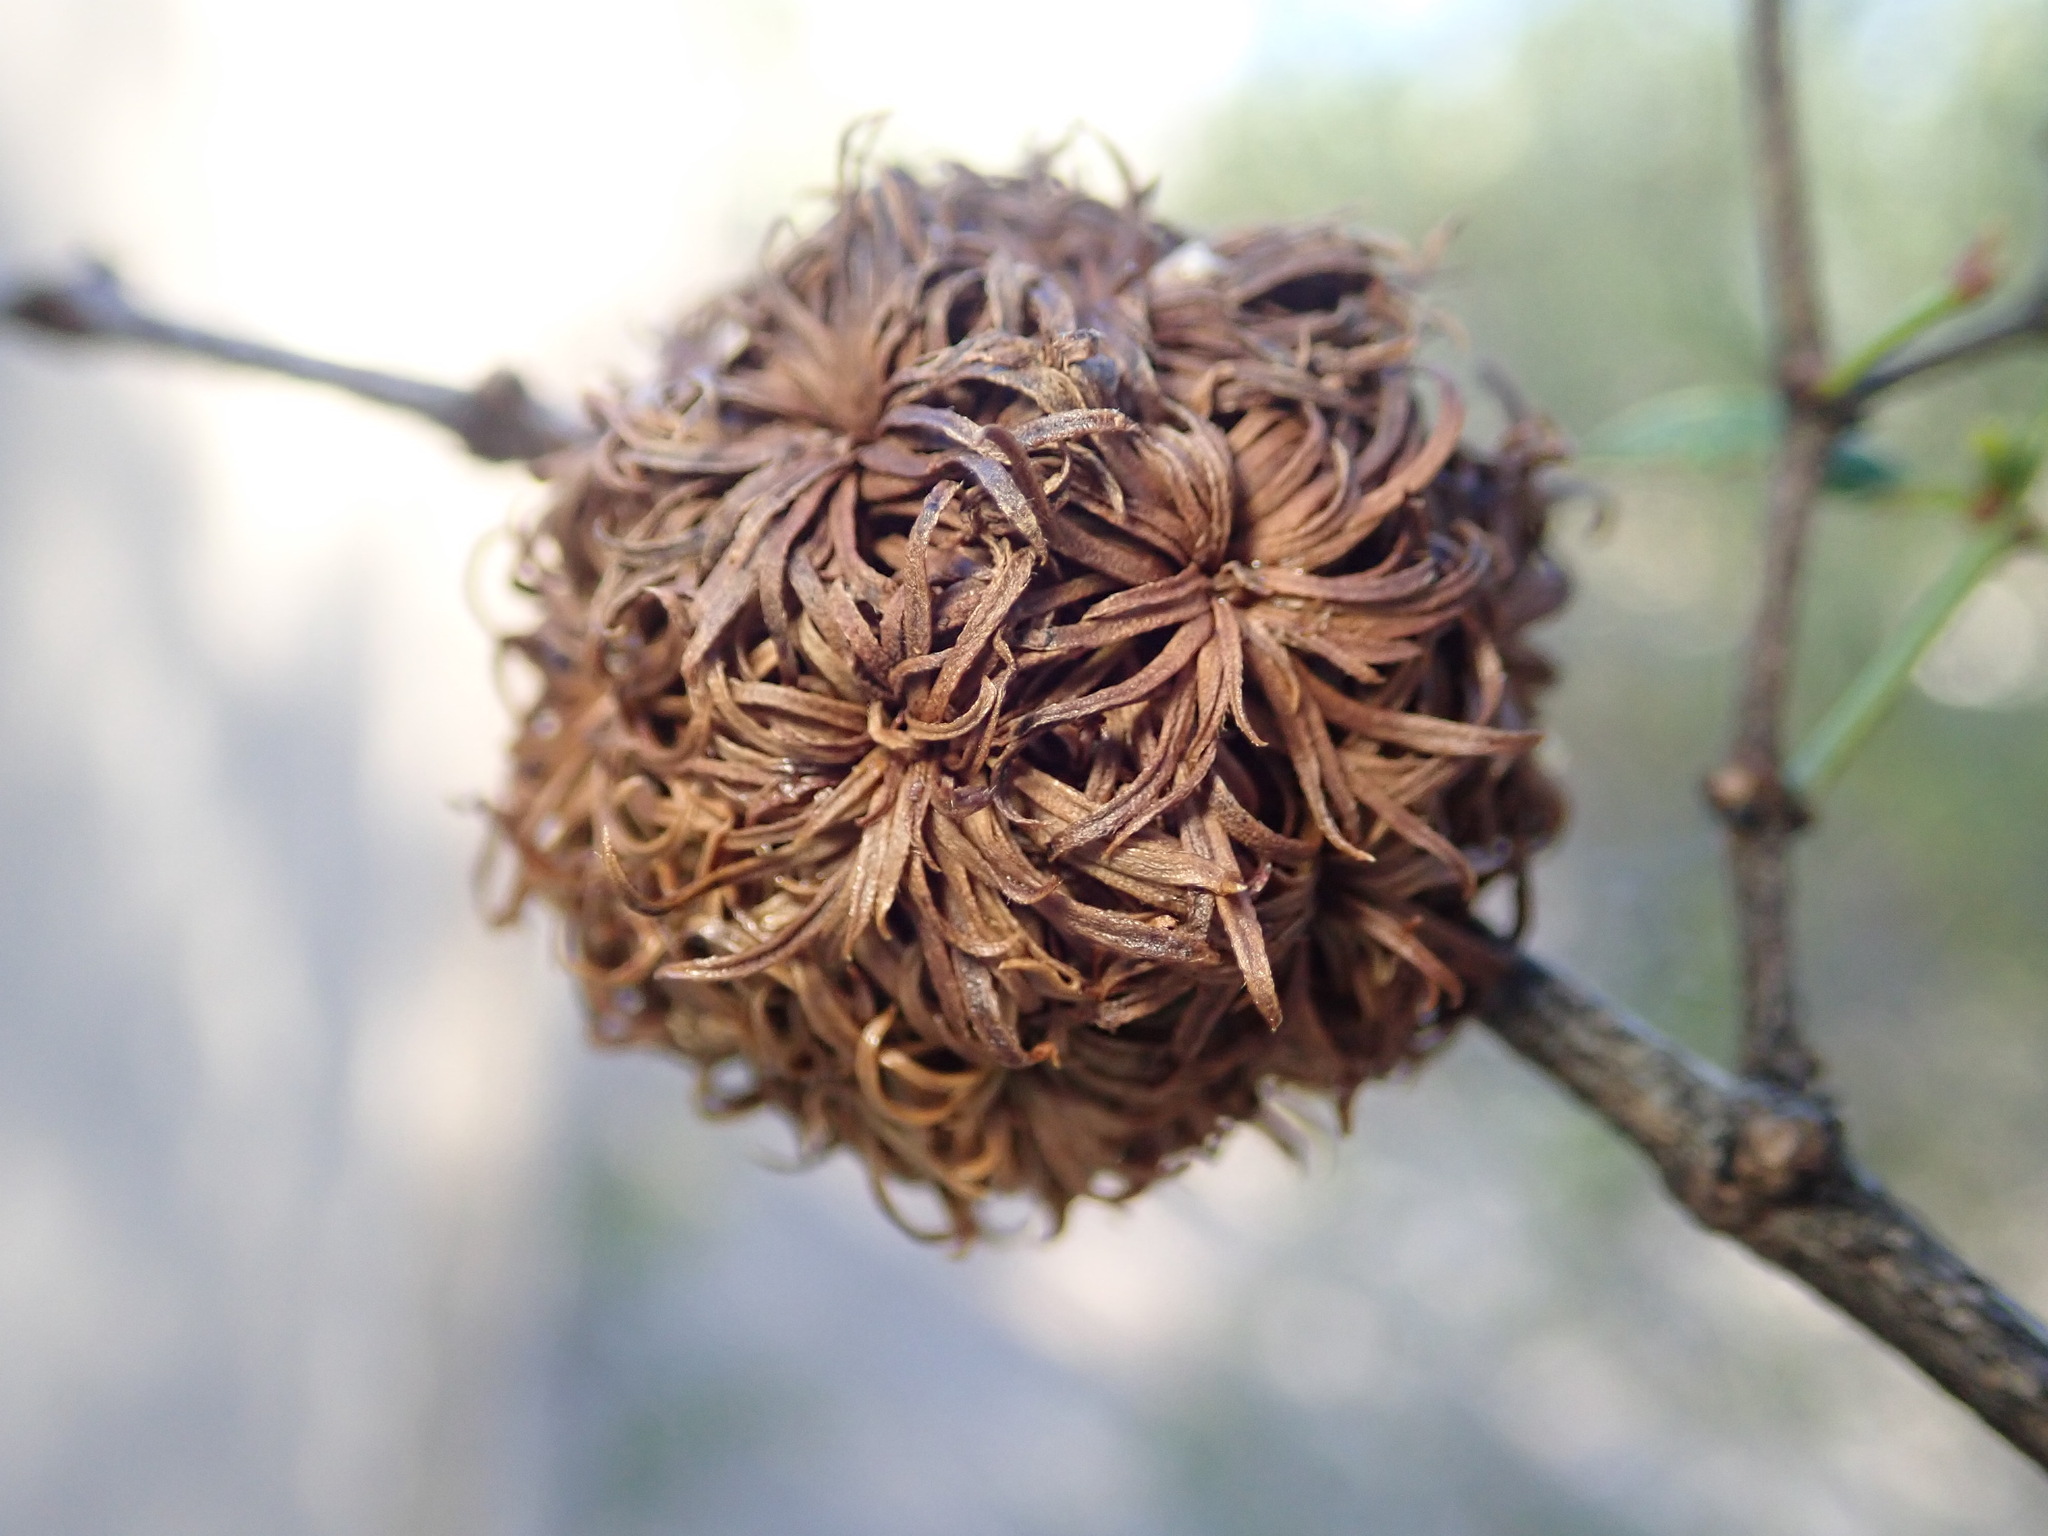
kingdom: Animalia
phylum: Arthropoda
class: Insecta
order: Diptera
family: Cecidomyiidae
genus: Asphondylia
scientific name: Asphondylia auripila
